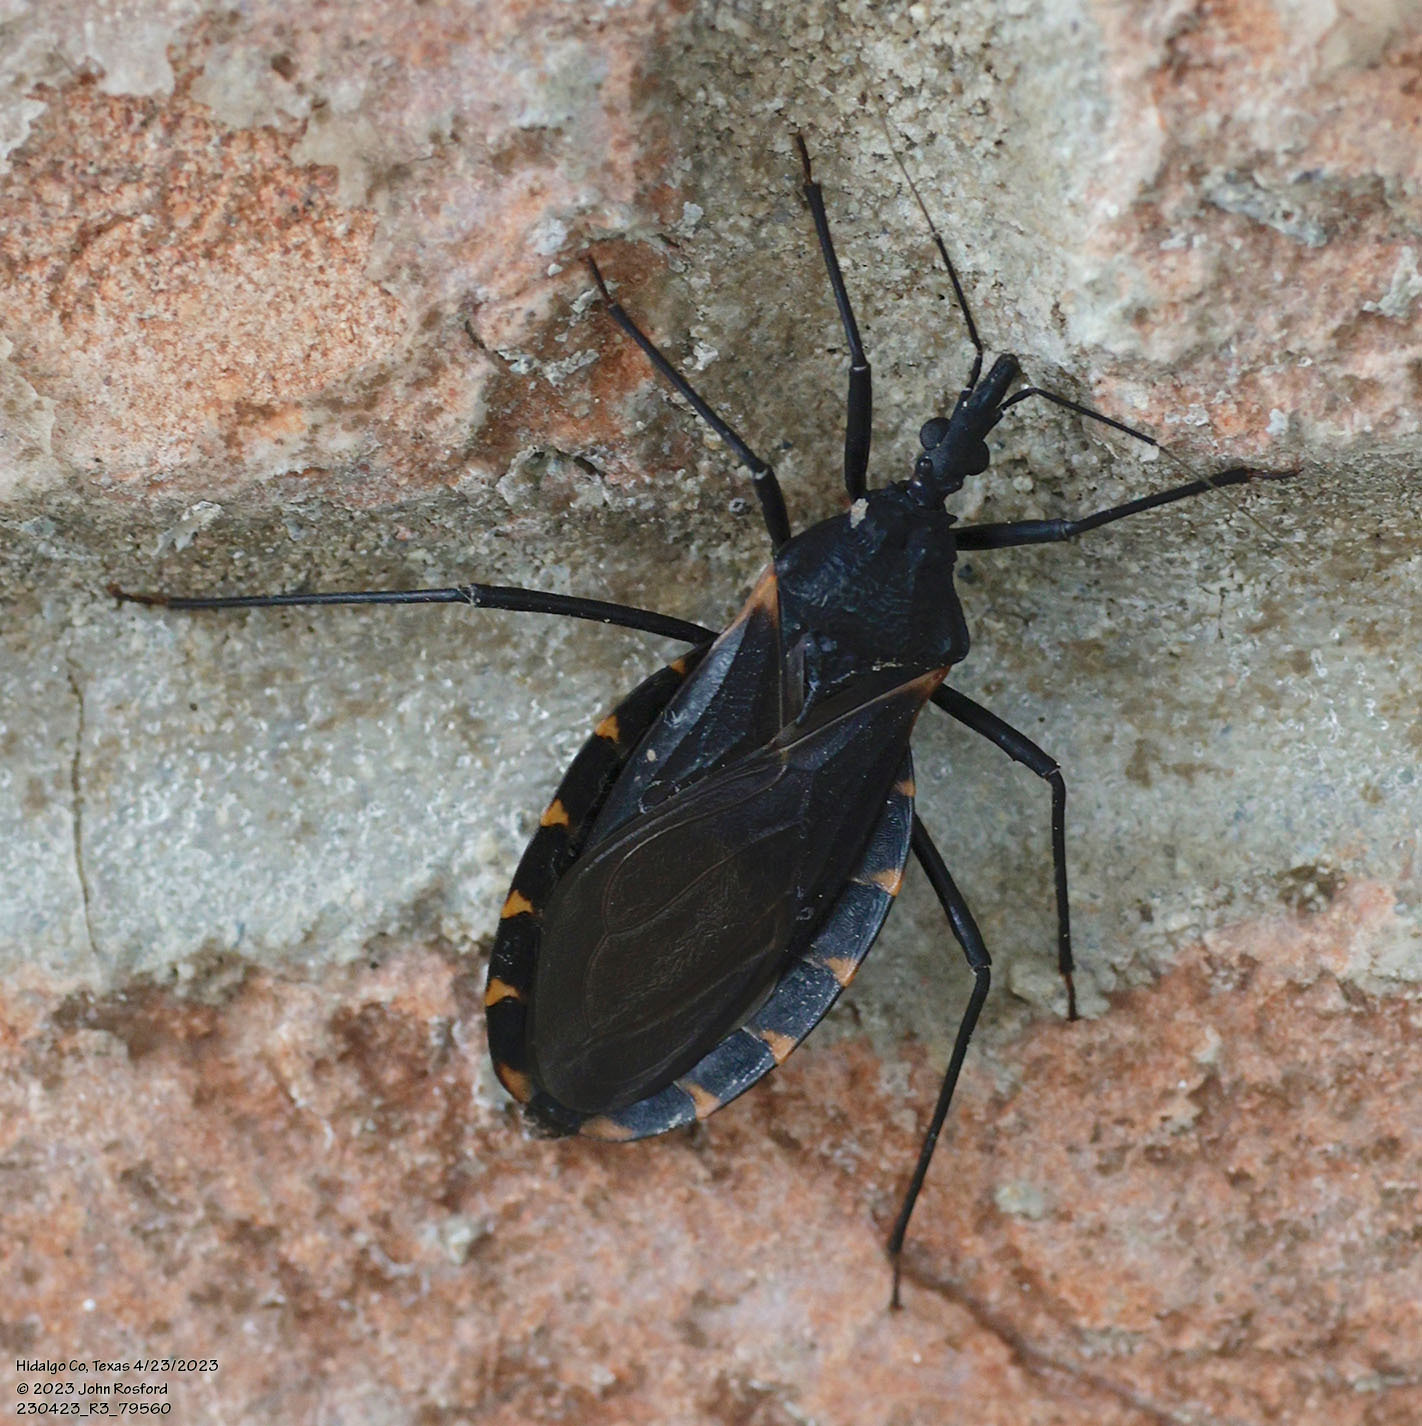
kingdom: Animalia
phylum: Arthropoda
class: Insecta
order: Hemiptera
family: Reduviidae
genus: Triatoma
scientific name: Triatoma gerstaeckeri
